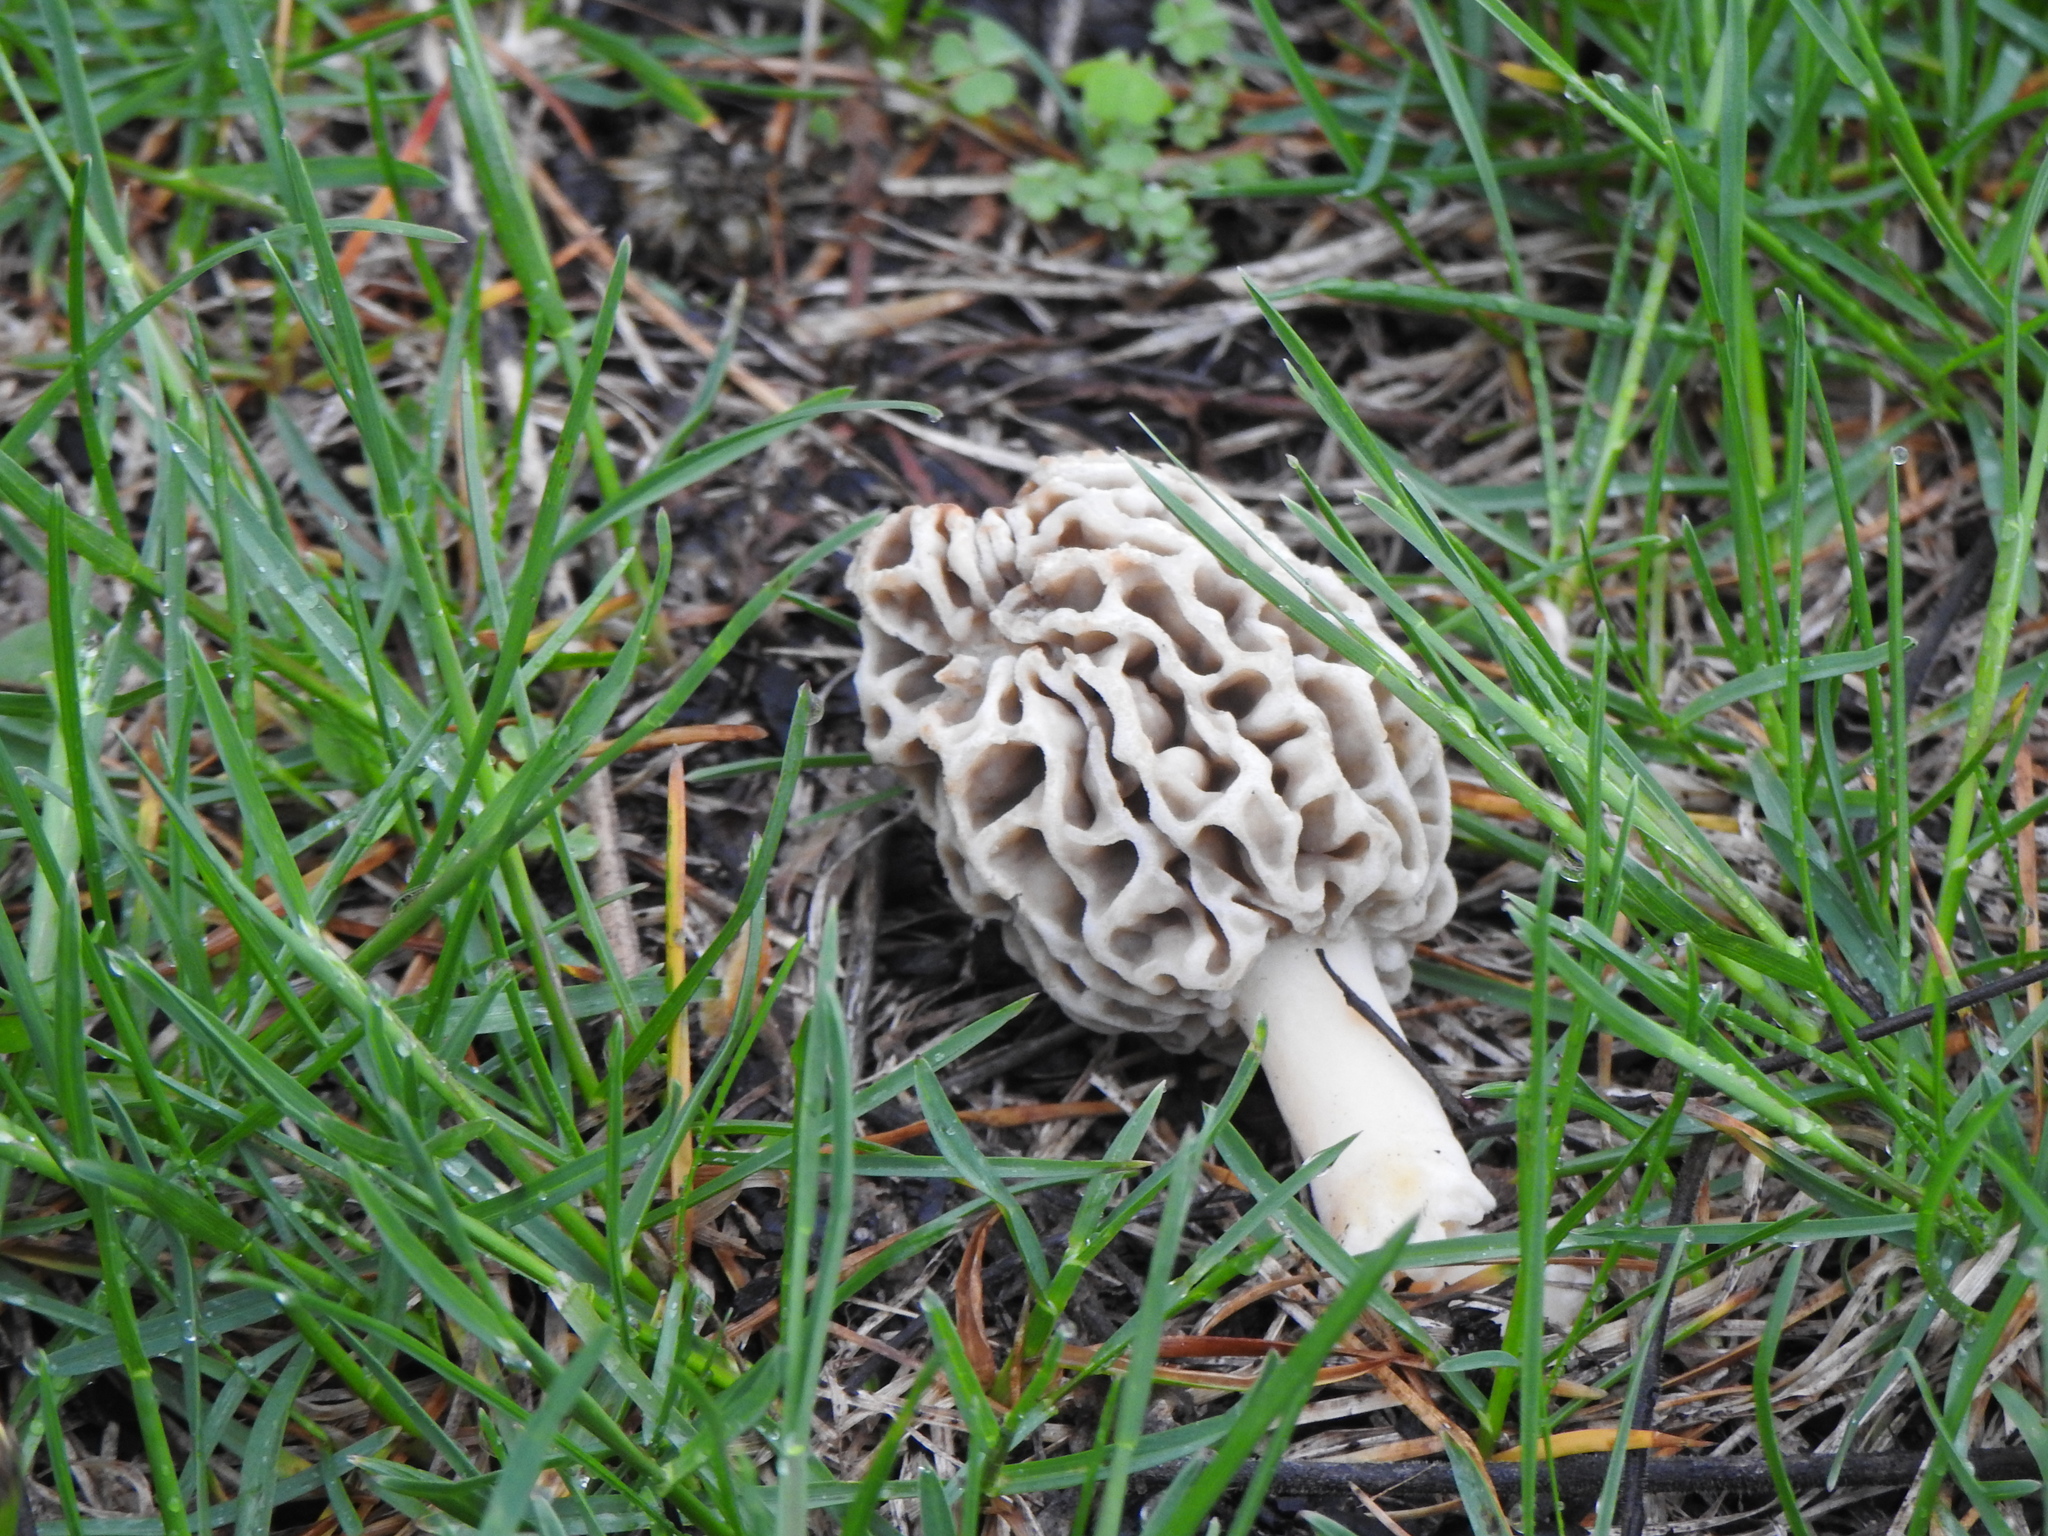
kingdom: Fungi
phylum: Ascomycota
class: Pezizomycetes
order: Pezizales
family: Morchellaceae
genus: Morchella
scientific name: Morchella americana
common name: White morel
